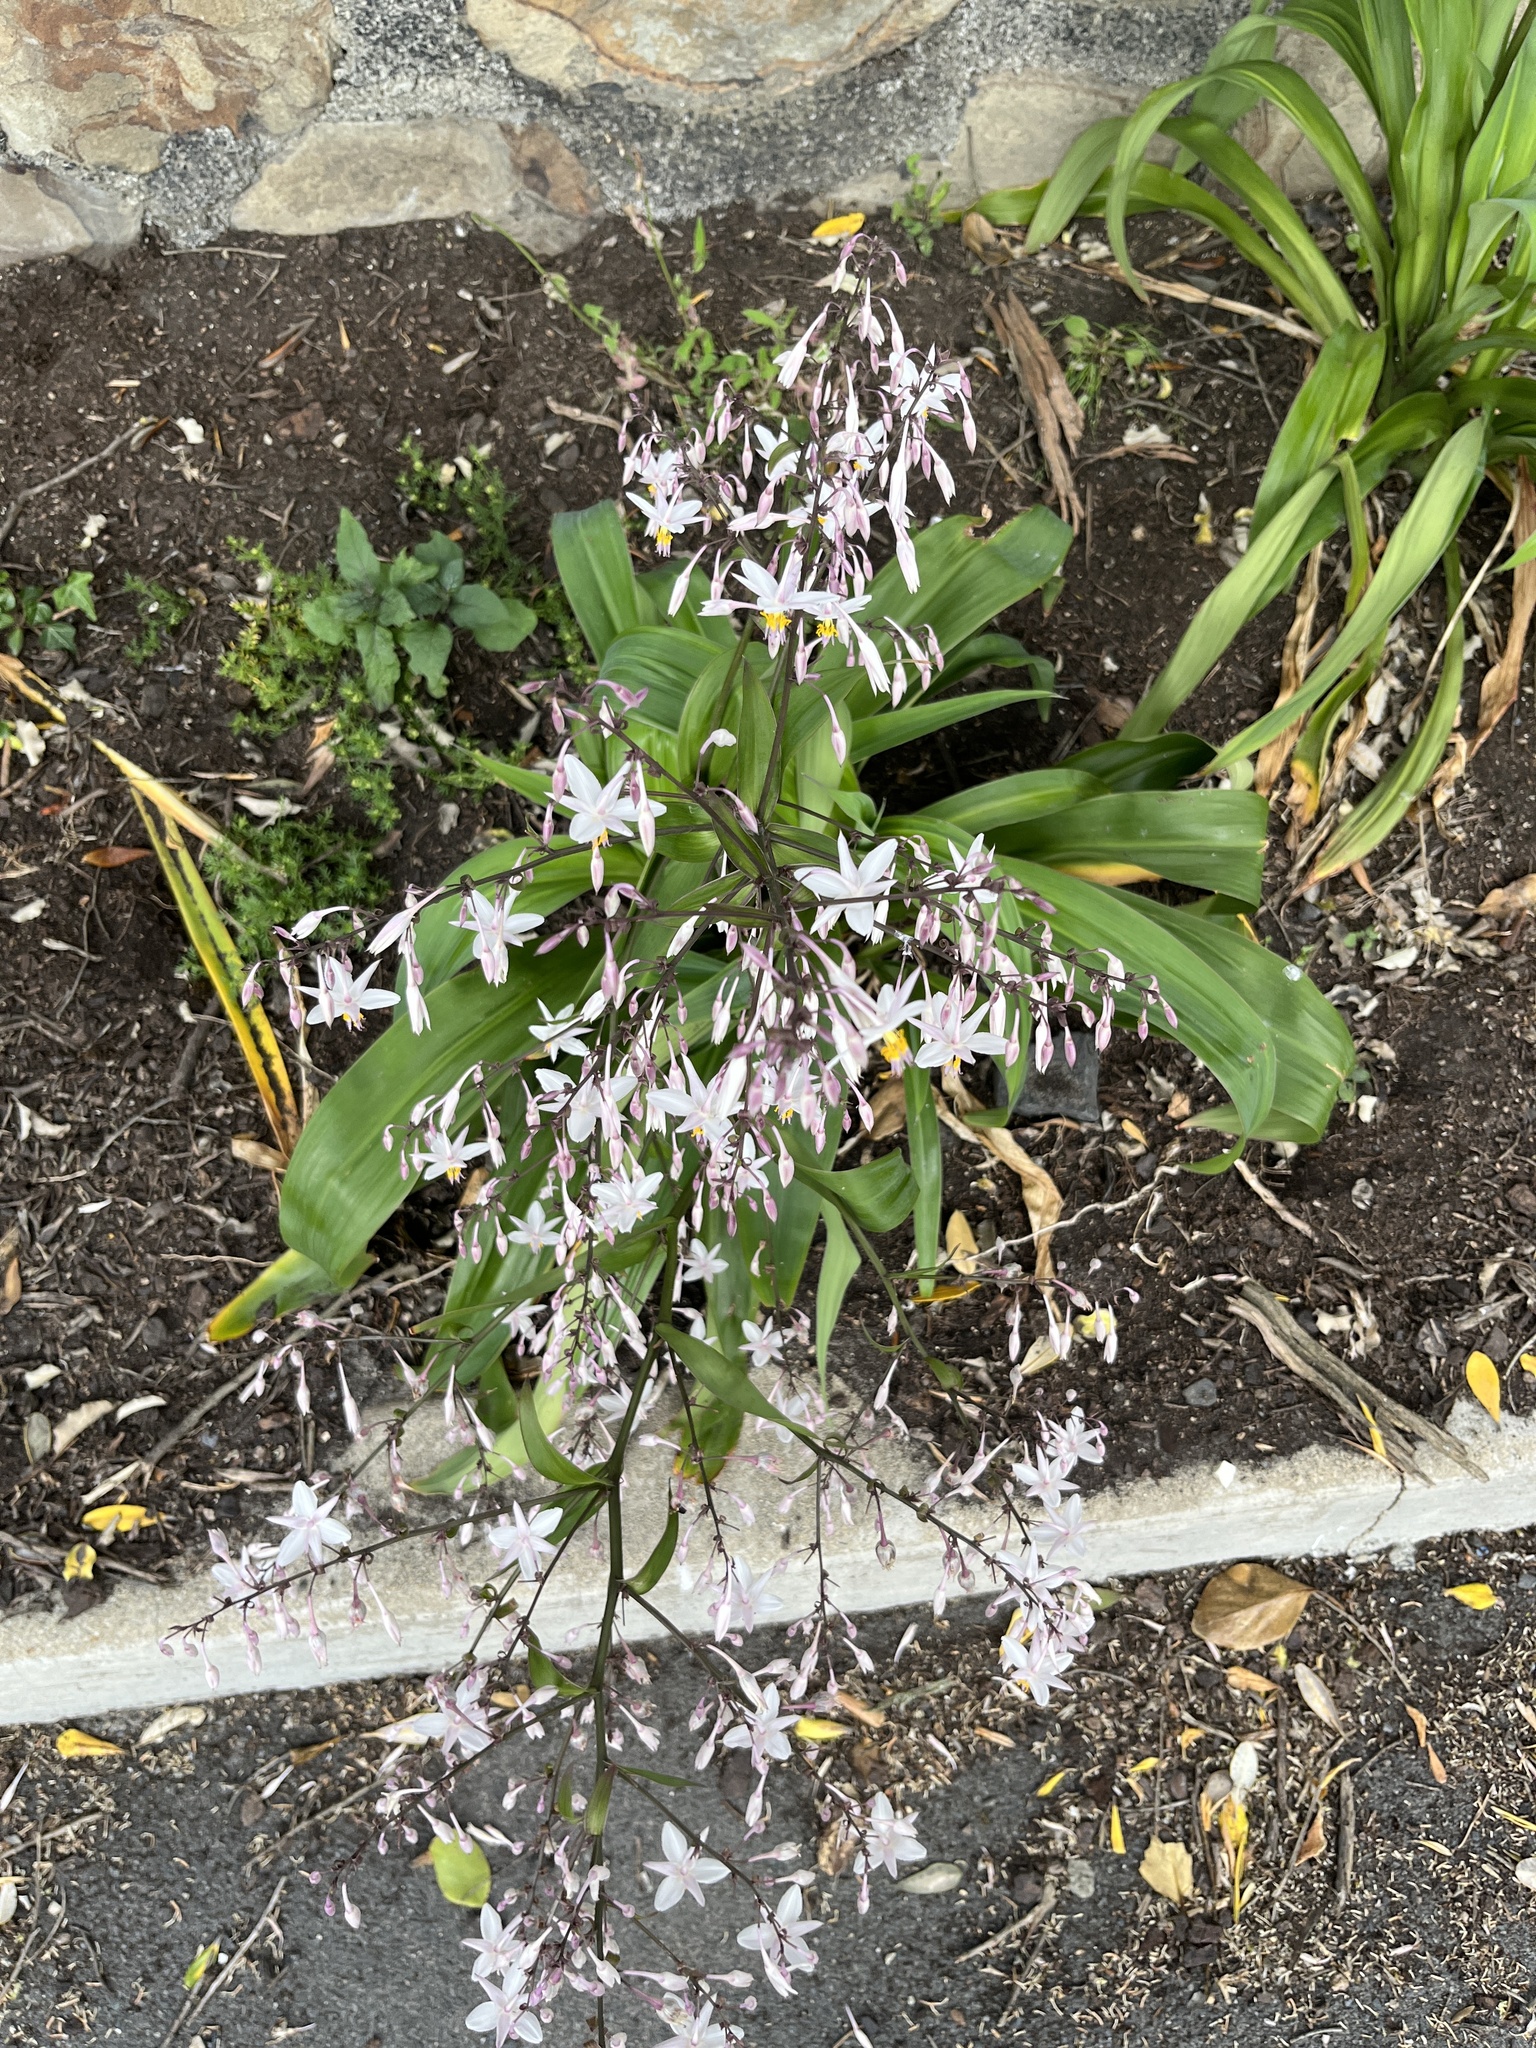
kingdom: Plantae
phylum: Tracheophyta
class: Liliopsida
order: Asparagales
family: Asparagaceae
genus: Arthropodium
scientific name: Arthropodium cirratum
